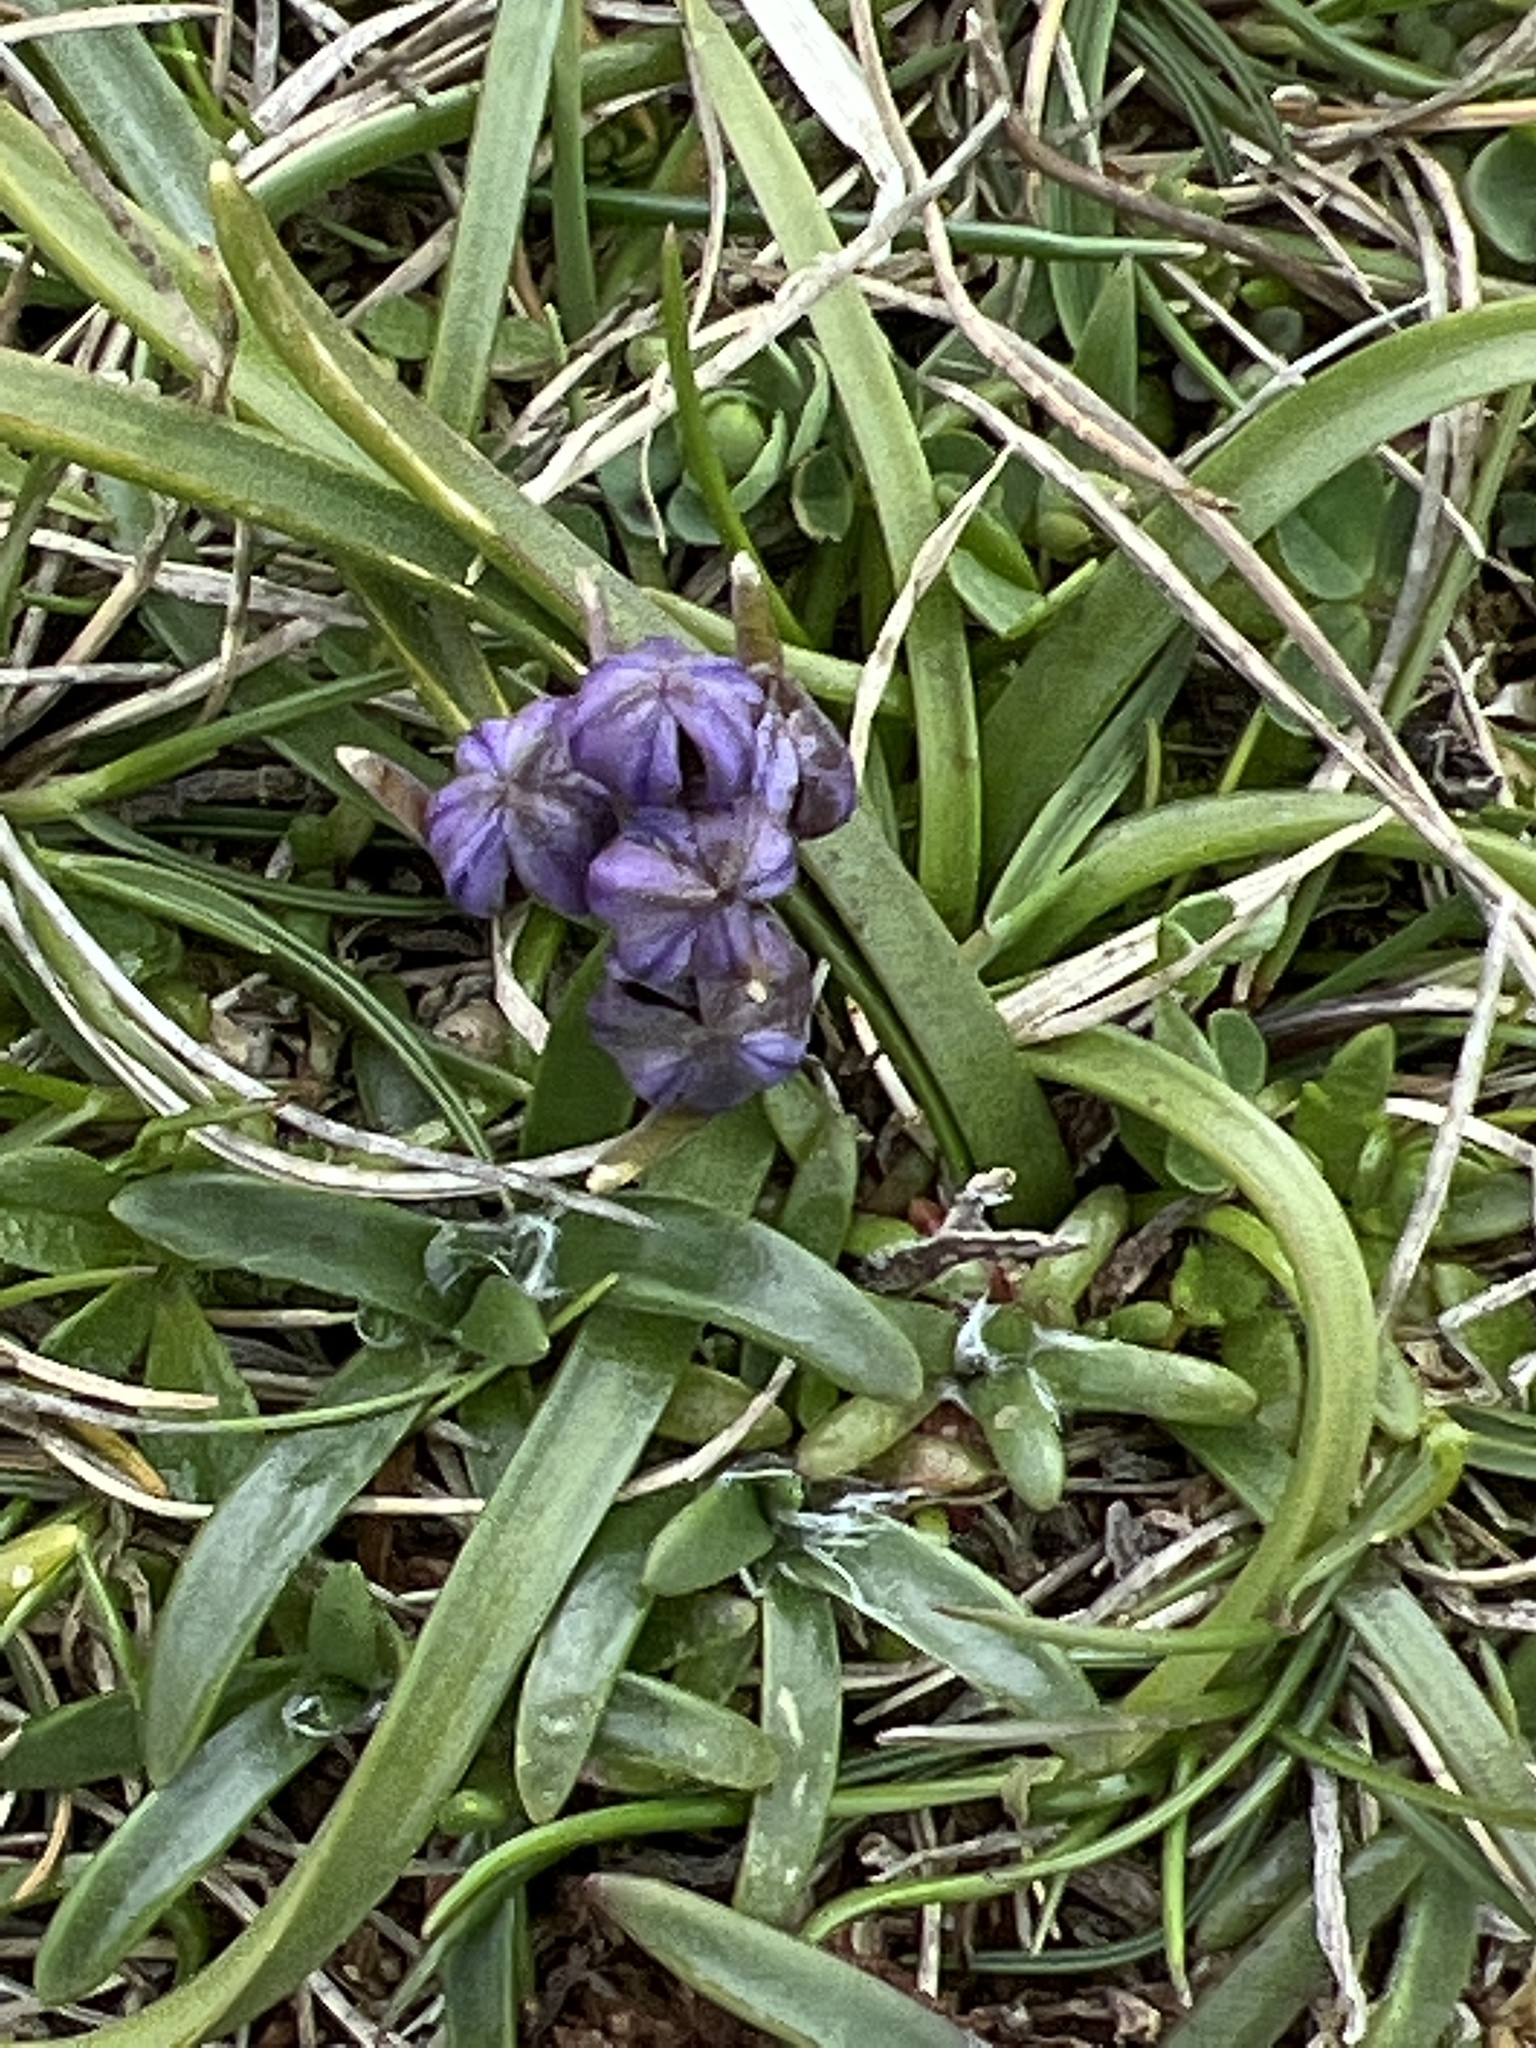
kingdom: Plantae
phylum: Tracheophyta
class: Liliopsida
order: Asparagales
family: Asparagaceae
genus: Scilla
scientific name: Scilla verna
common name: Spring squill
